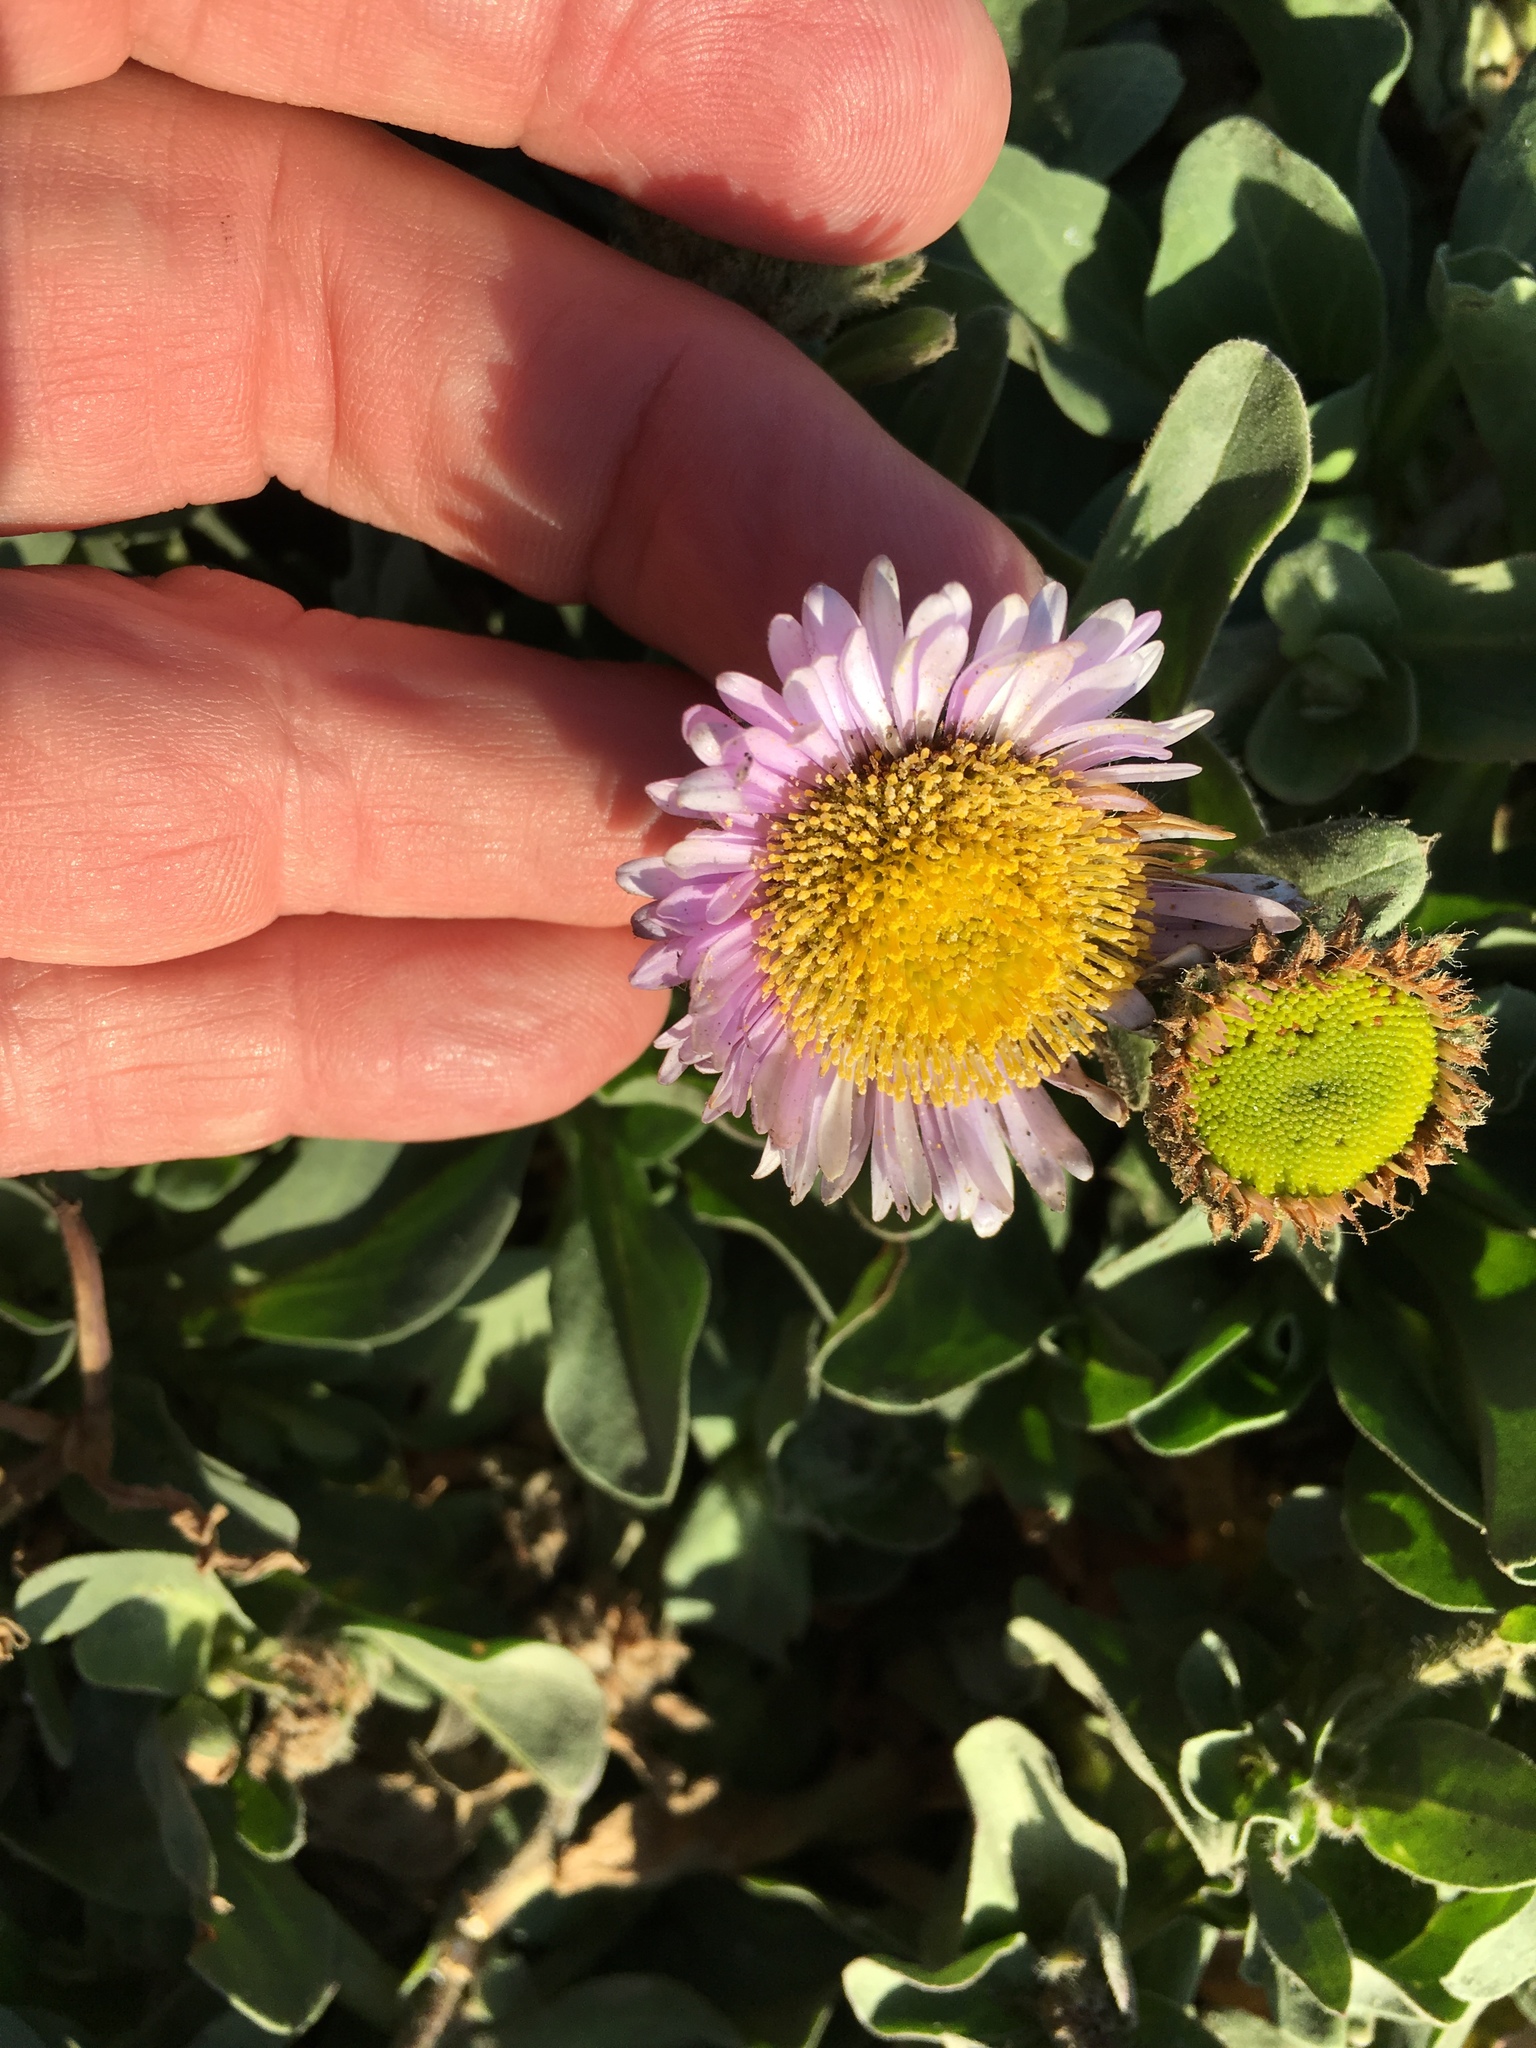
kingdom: Plantae
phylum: Tracheophyta
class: Magnoliopsida
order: Asterales
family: Asteraceae
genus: Erigeron
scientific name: Erigeron glaucus
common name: Seaside daisy
